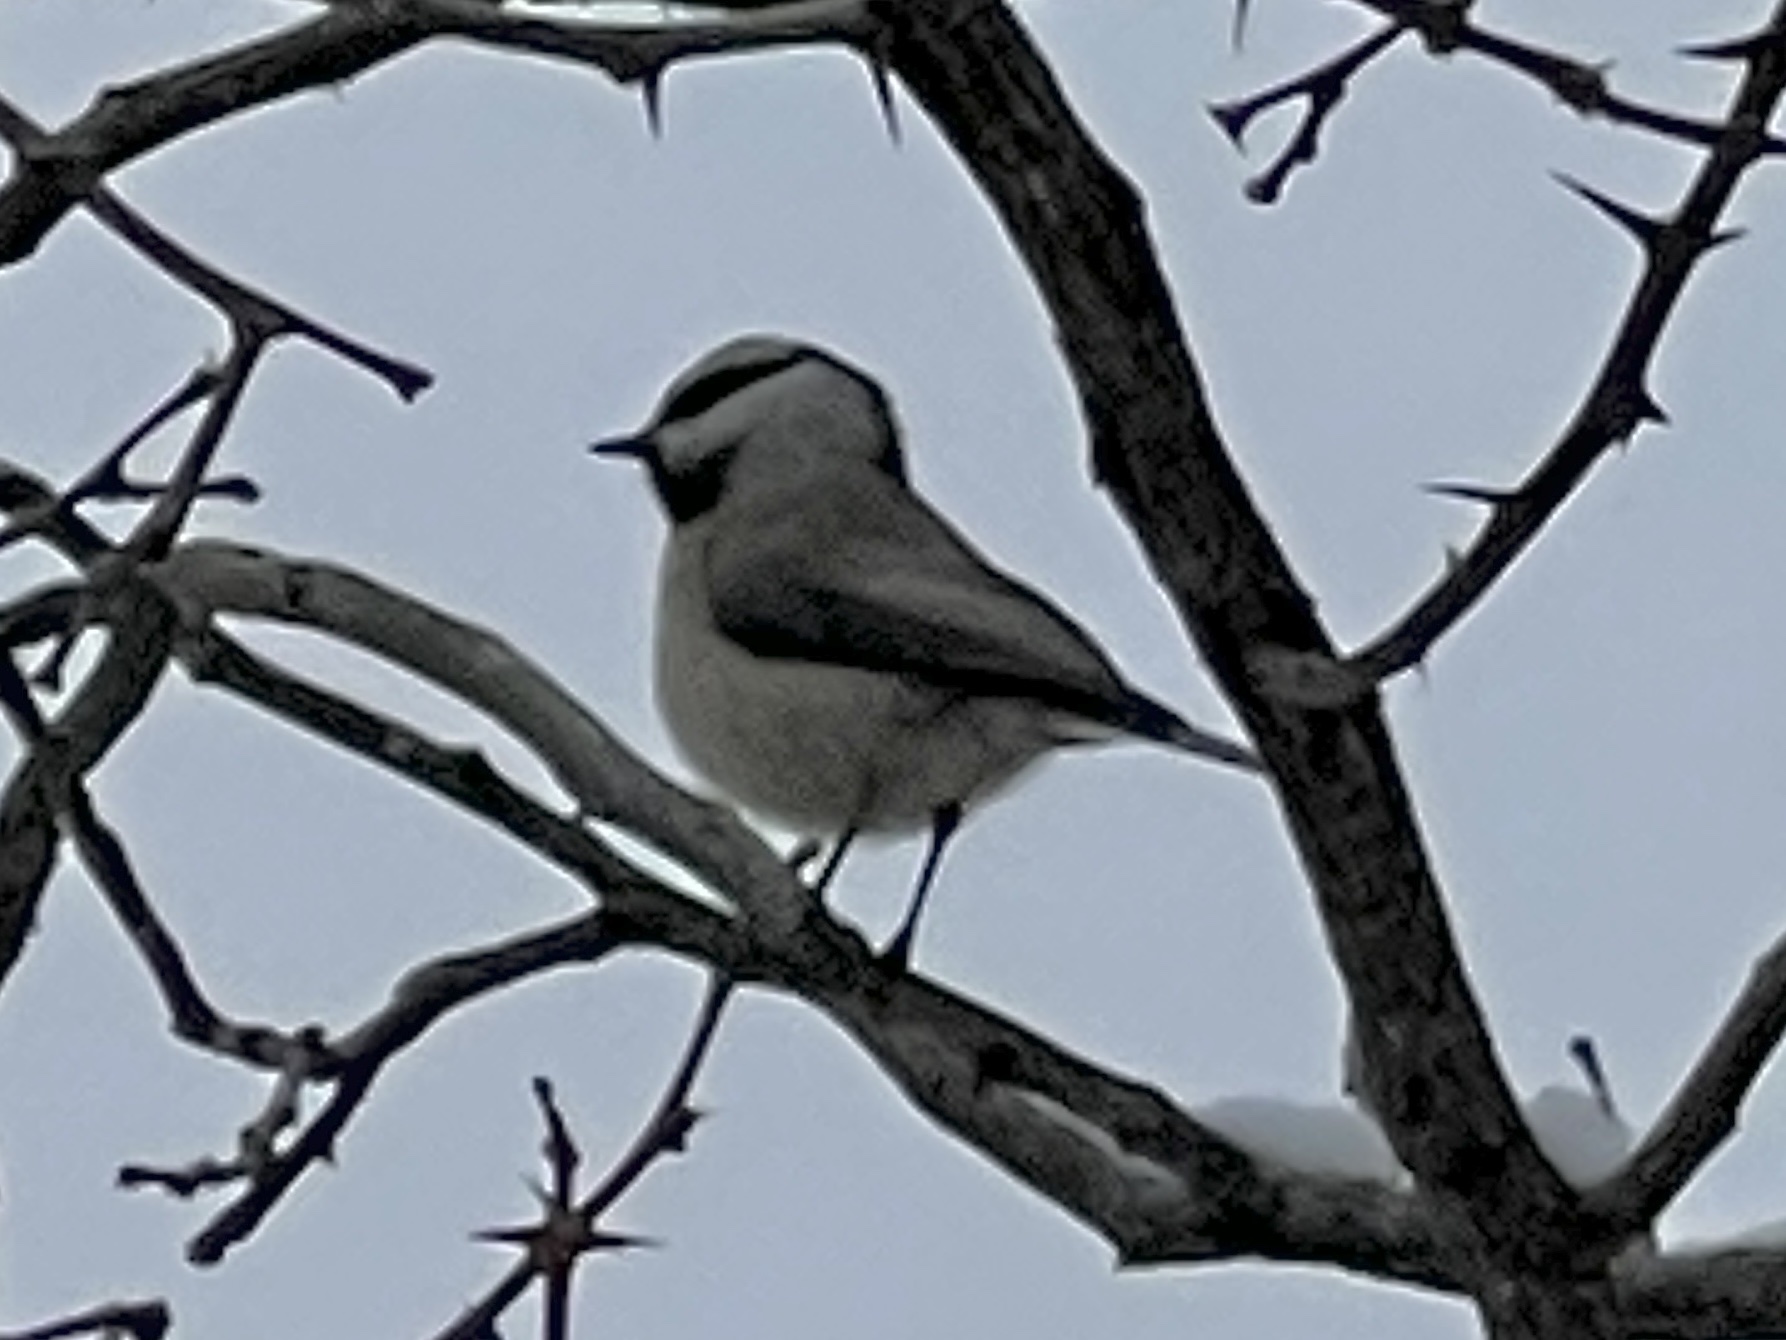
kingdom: Animalia
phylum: Chordata
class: Aves
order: Passeriformes
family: Paridae
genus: Poecile
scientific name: Poecile gambeli
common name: Mountain chickadee
